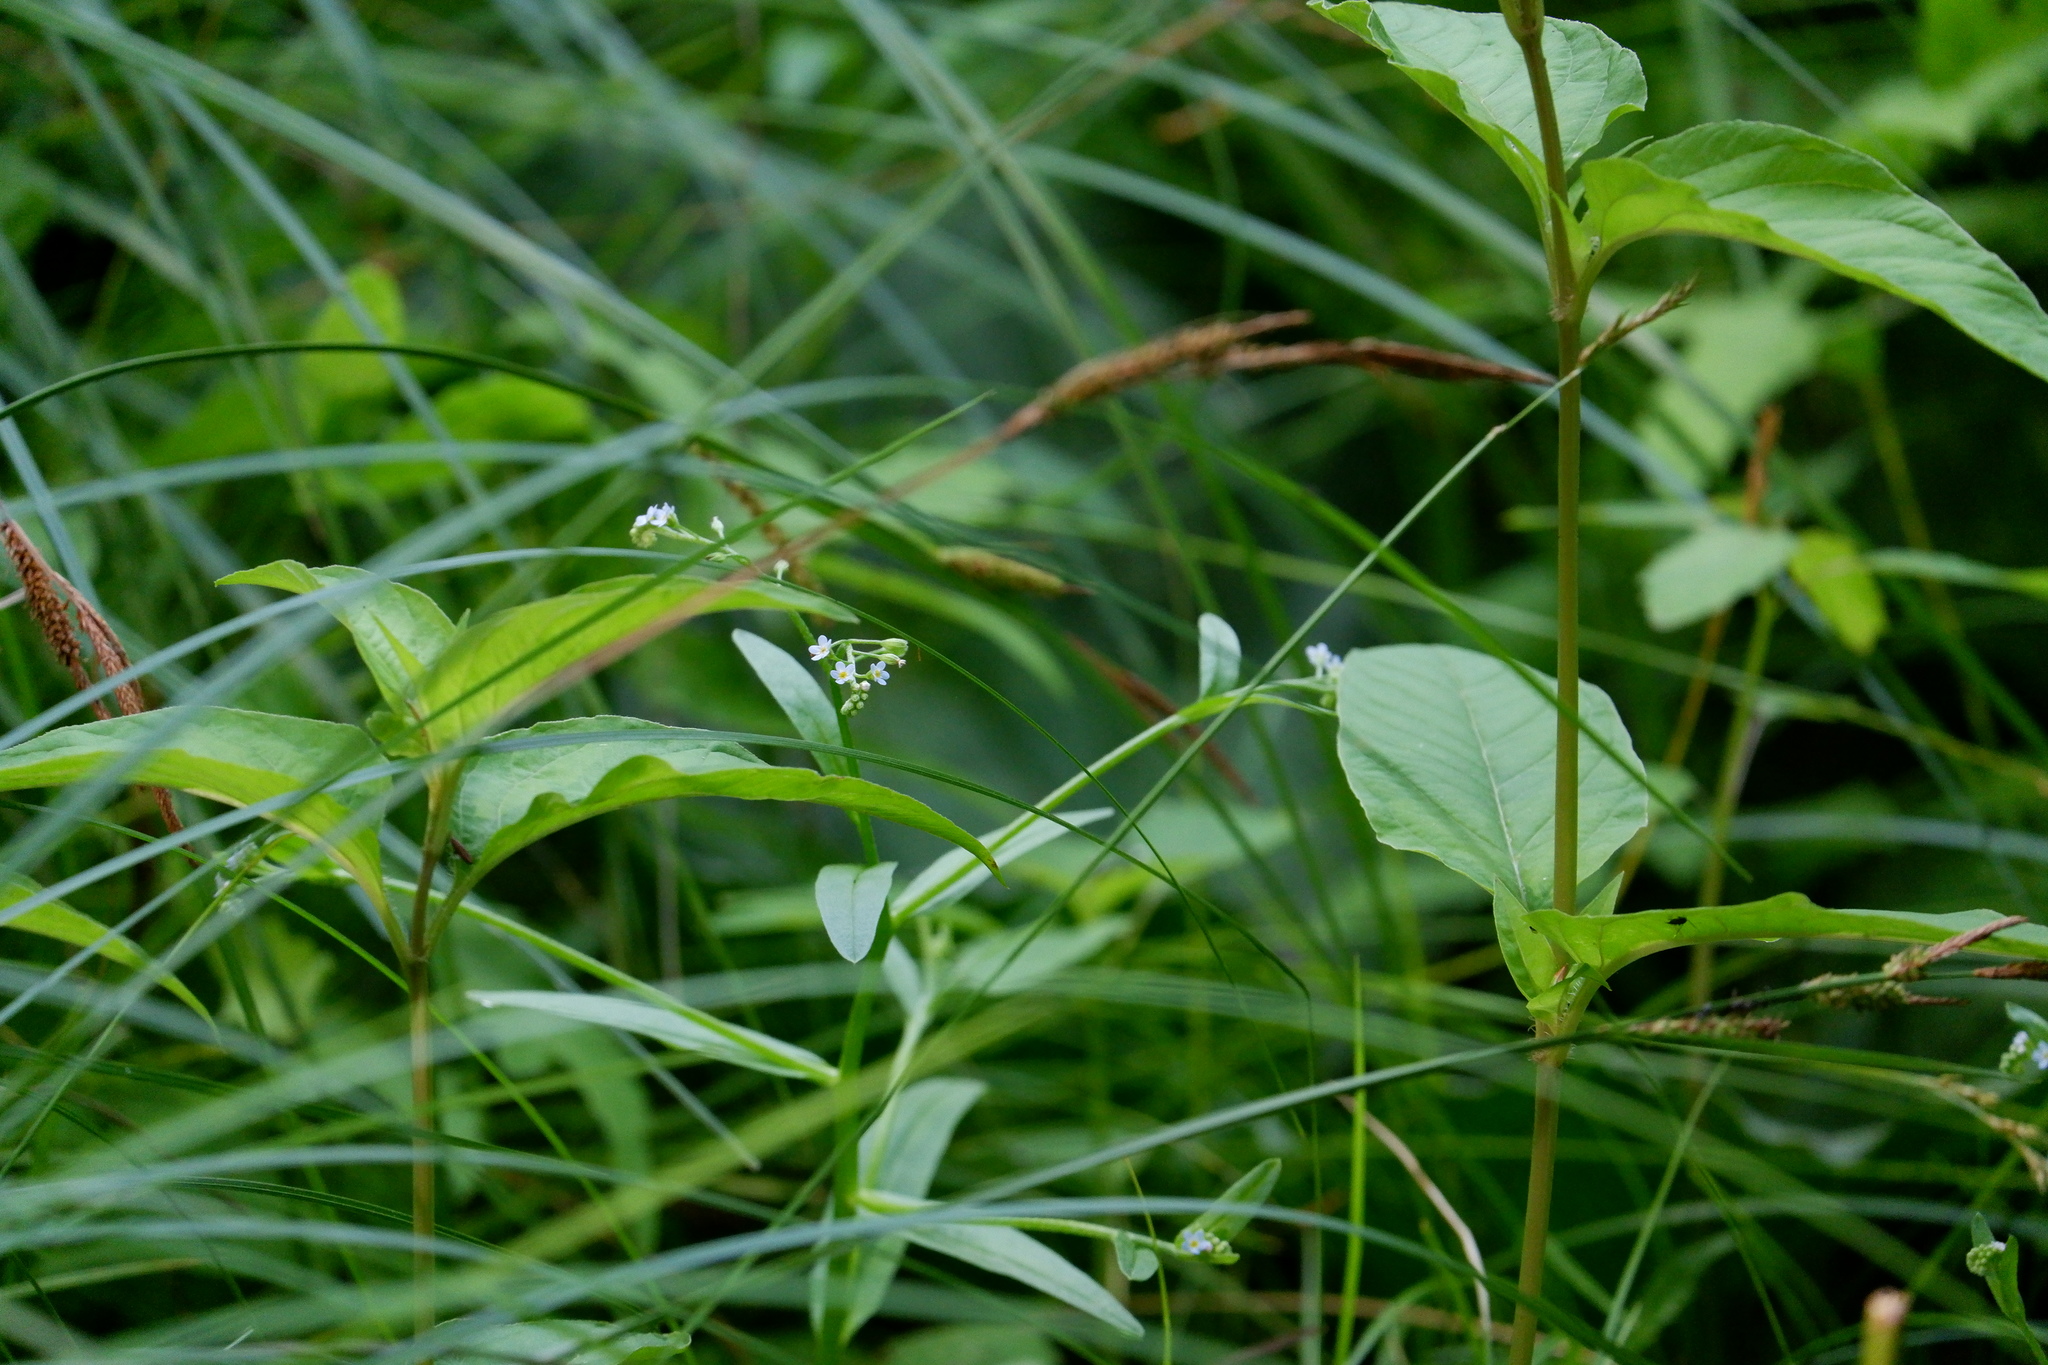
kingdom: Plantae
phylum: Tracheophyta
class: Magnoliopsida
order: Boraginales
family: Boraginaceae
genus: Myosotis
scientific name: Myosotis laxa
